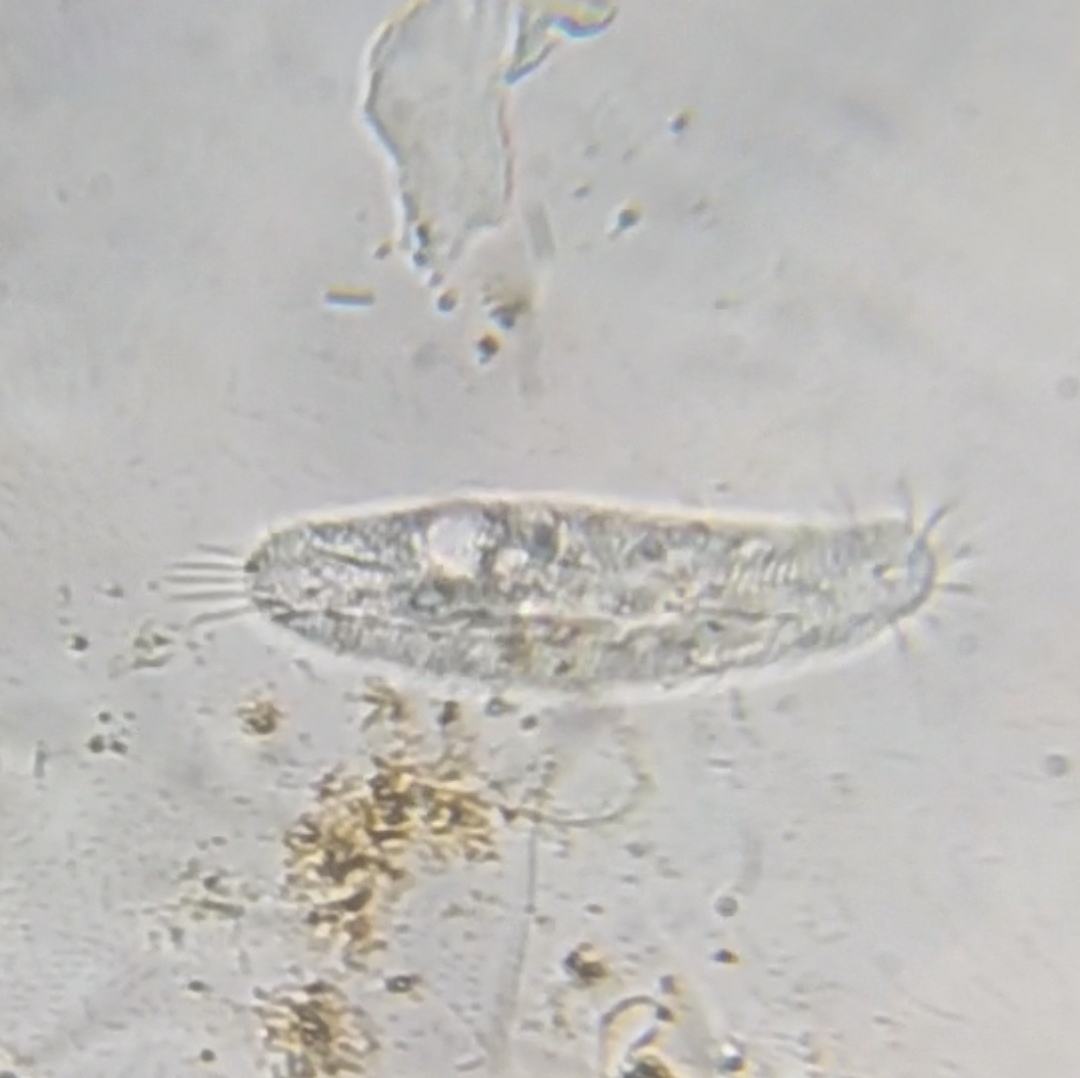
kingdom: Chromista
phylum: Ciliophora
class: Hypotrichea
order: Urostylida
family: Holostichidae
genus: Holosticha
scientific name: Holosticha pullaster
